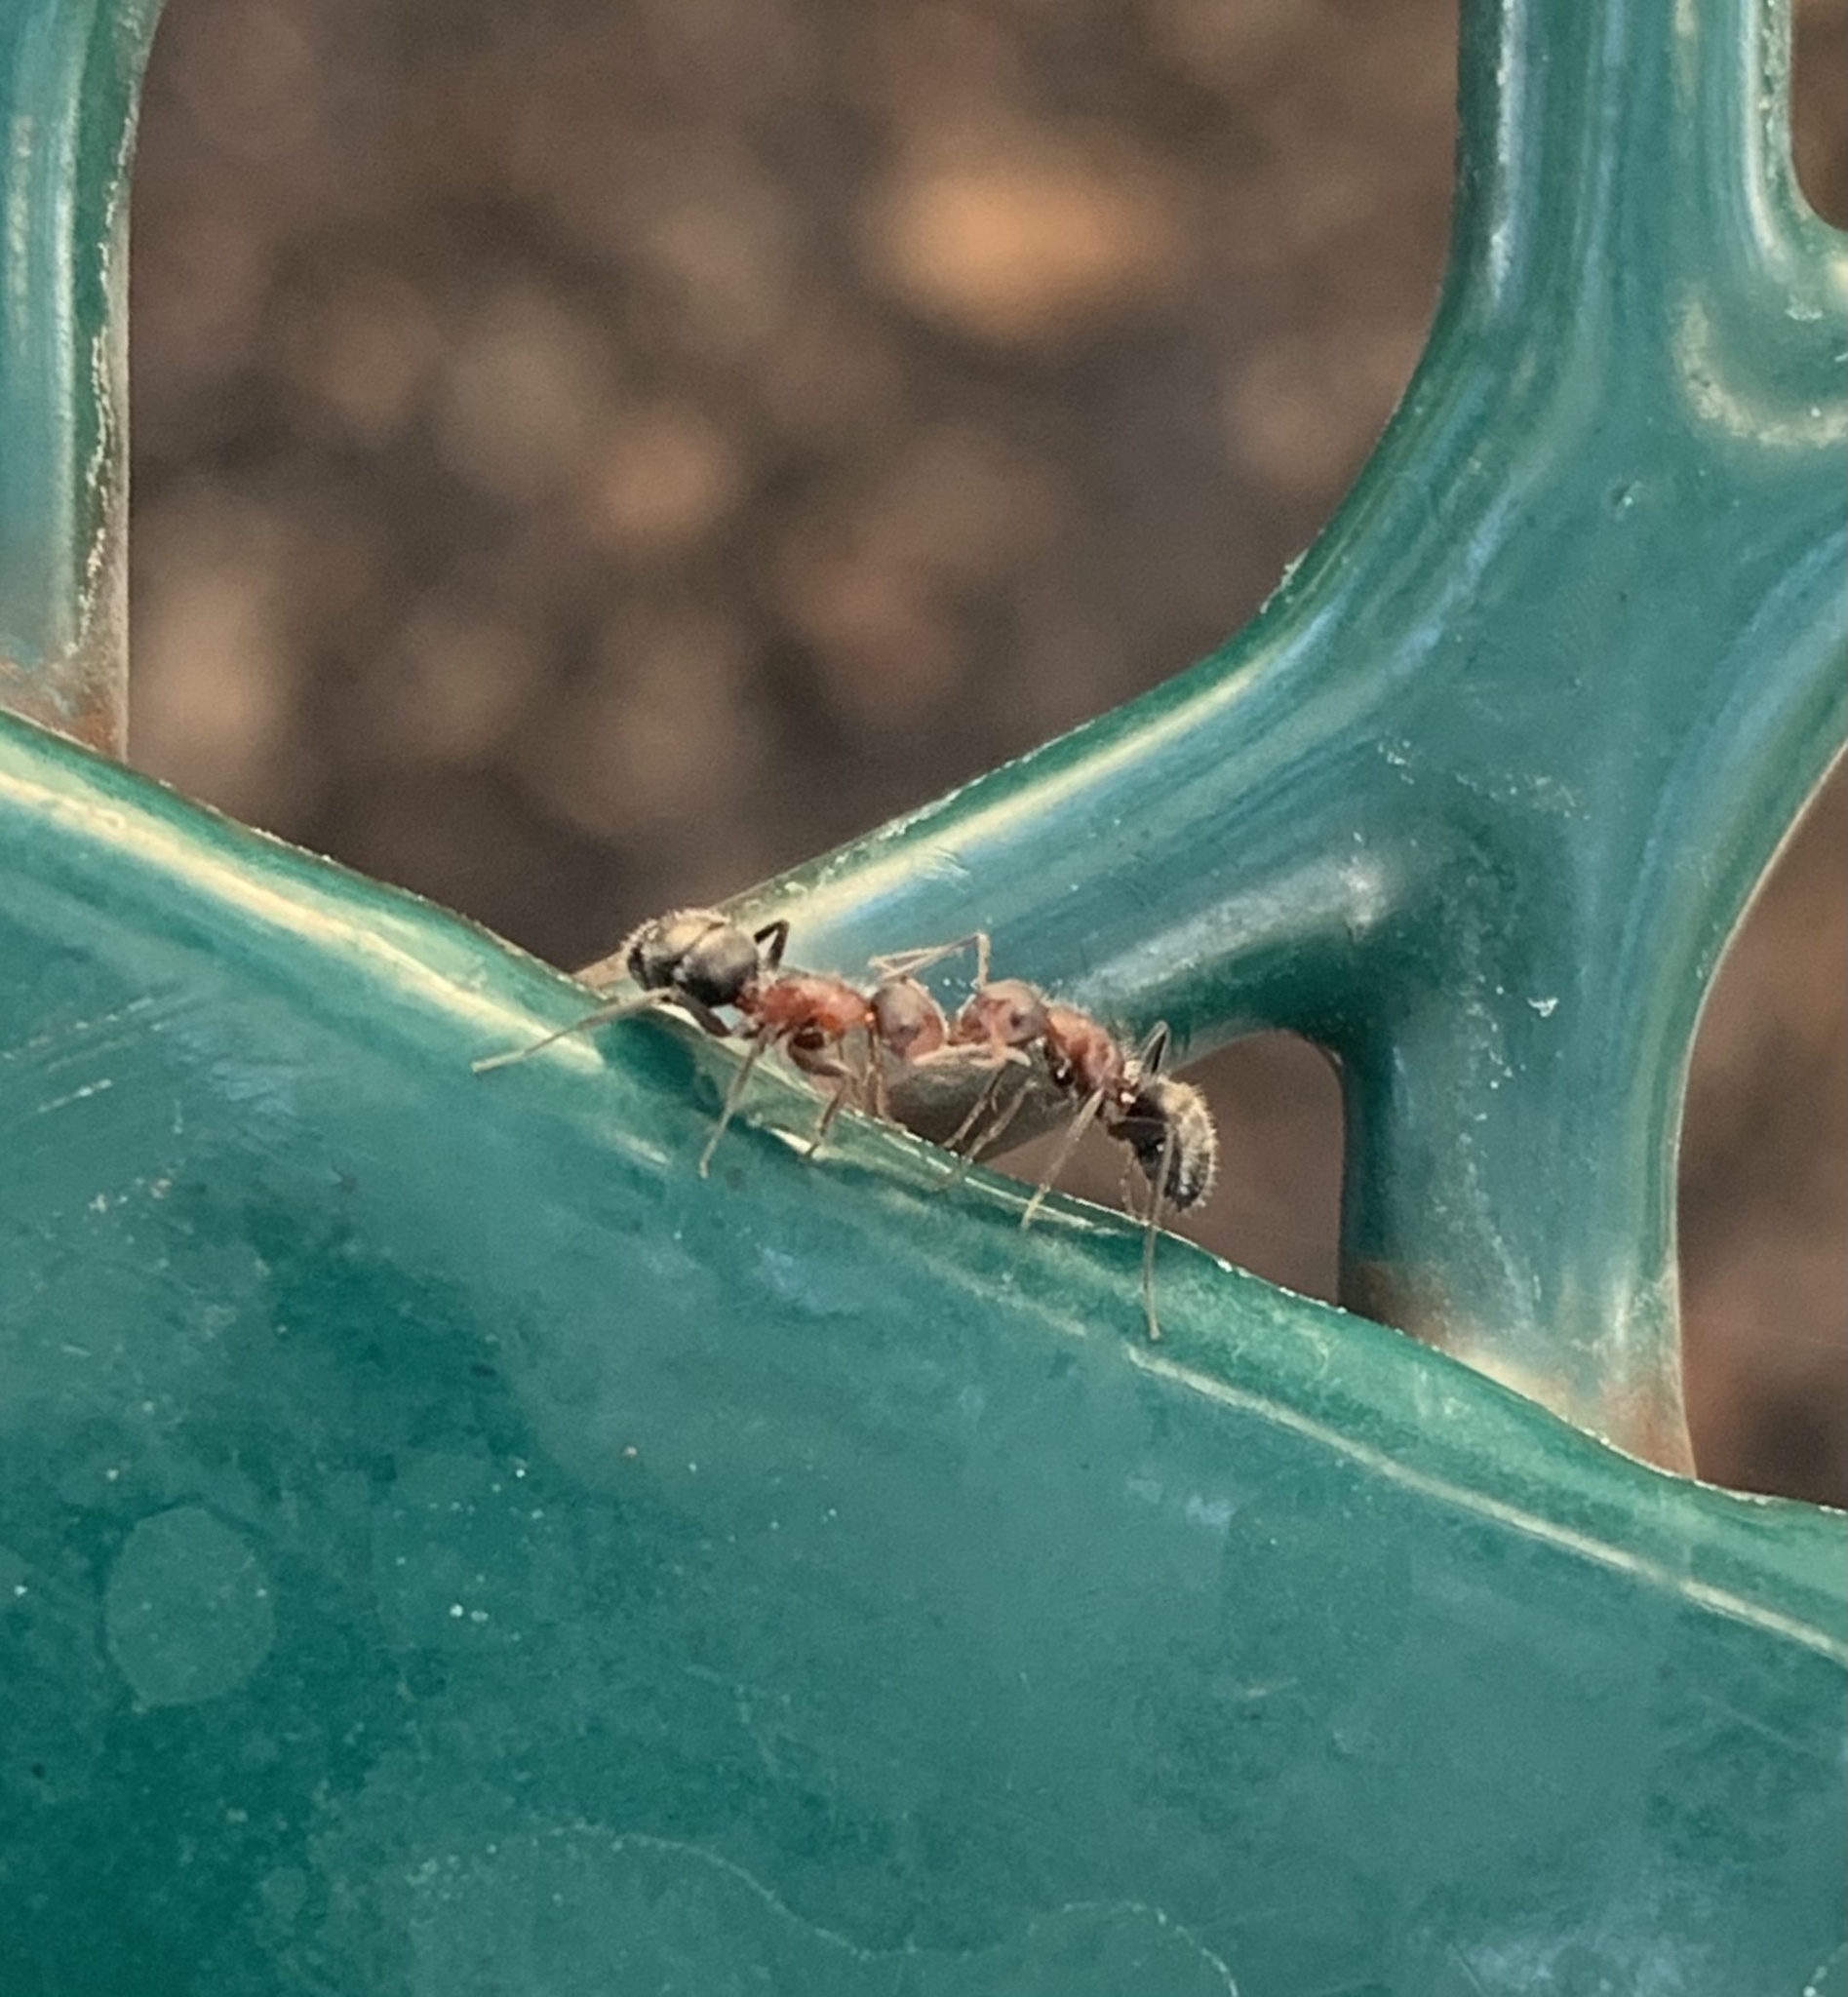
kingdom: Animalia
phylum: Arthropoda
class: Insecta
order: Hymenoptera
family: Formicidae
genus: Camponotus
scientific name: Camponotus planatus
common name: Compact carpenter ant
